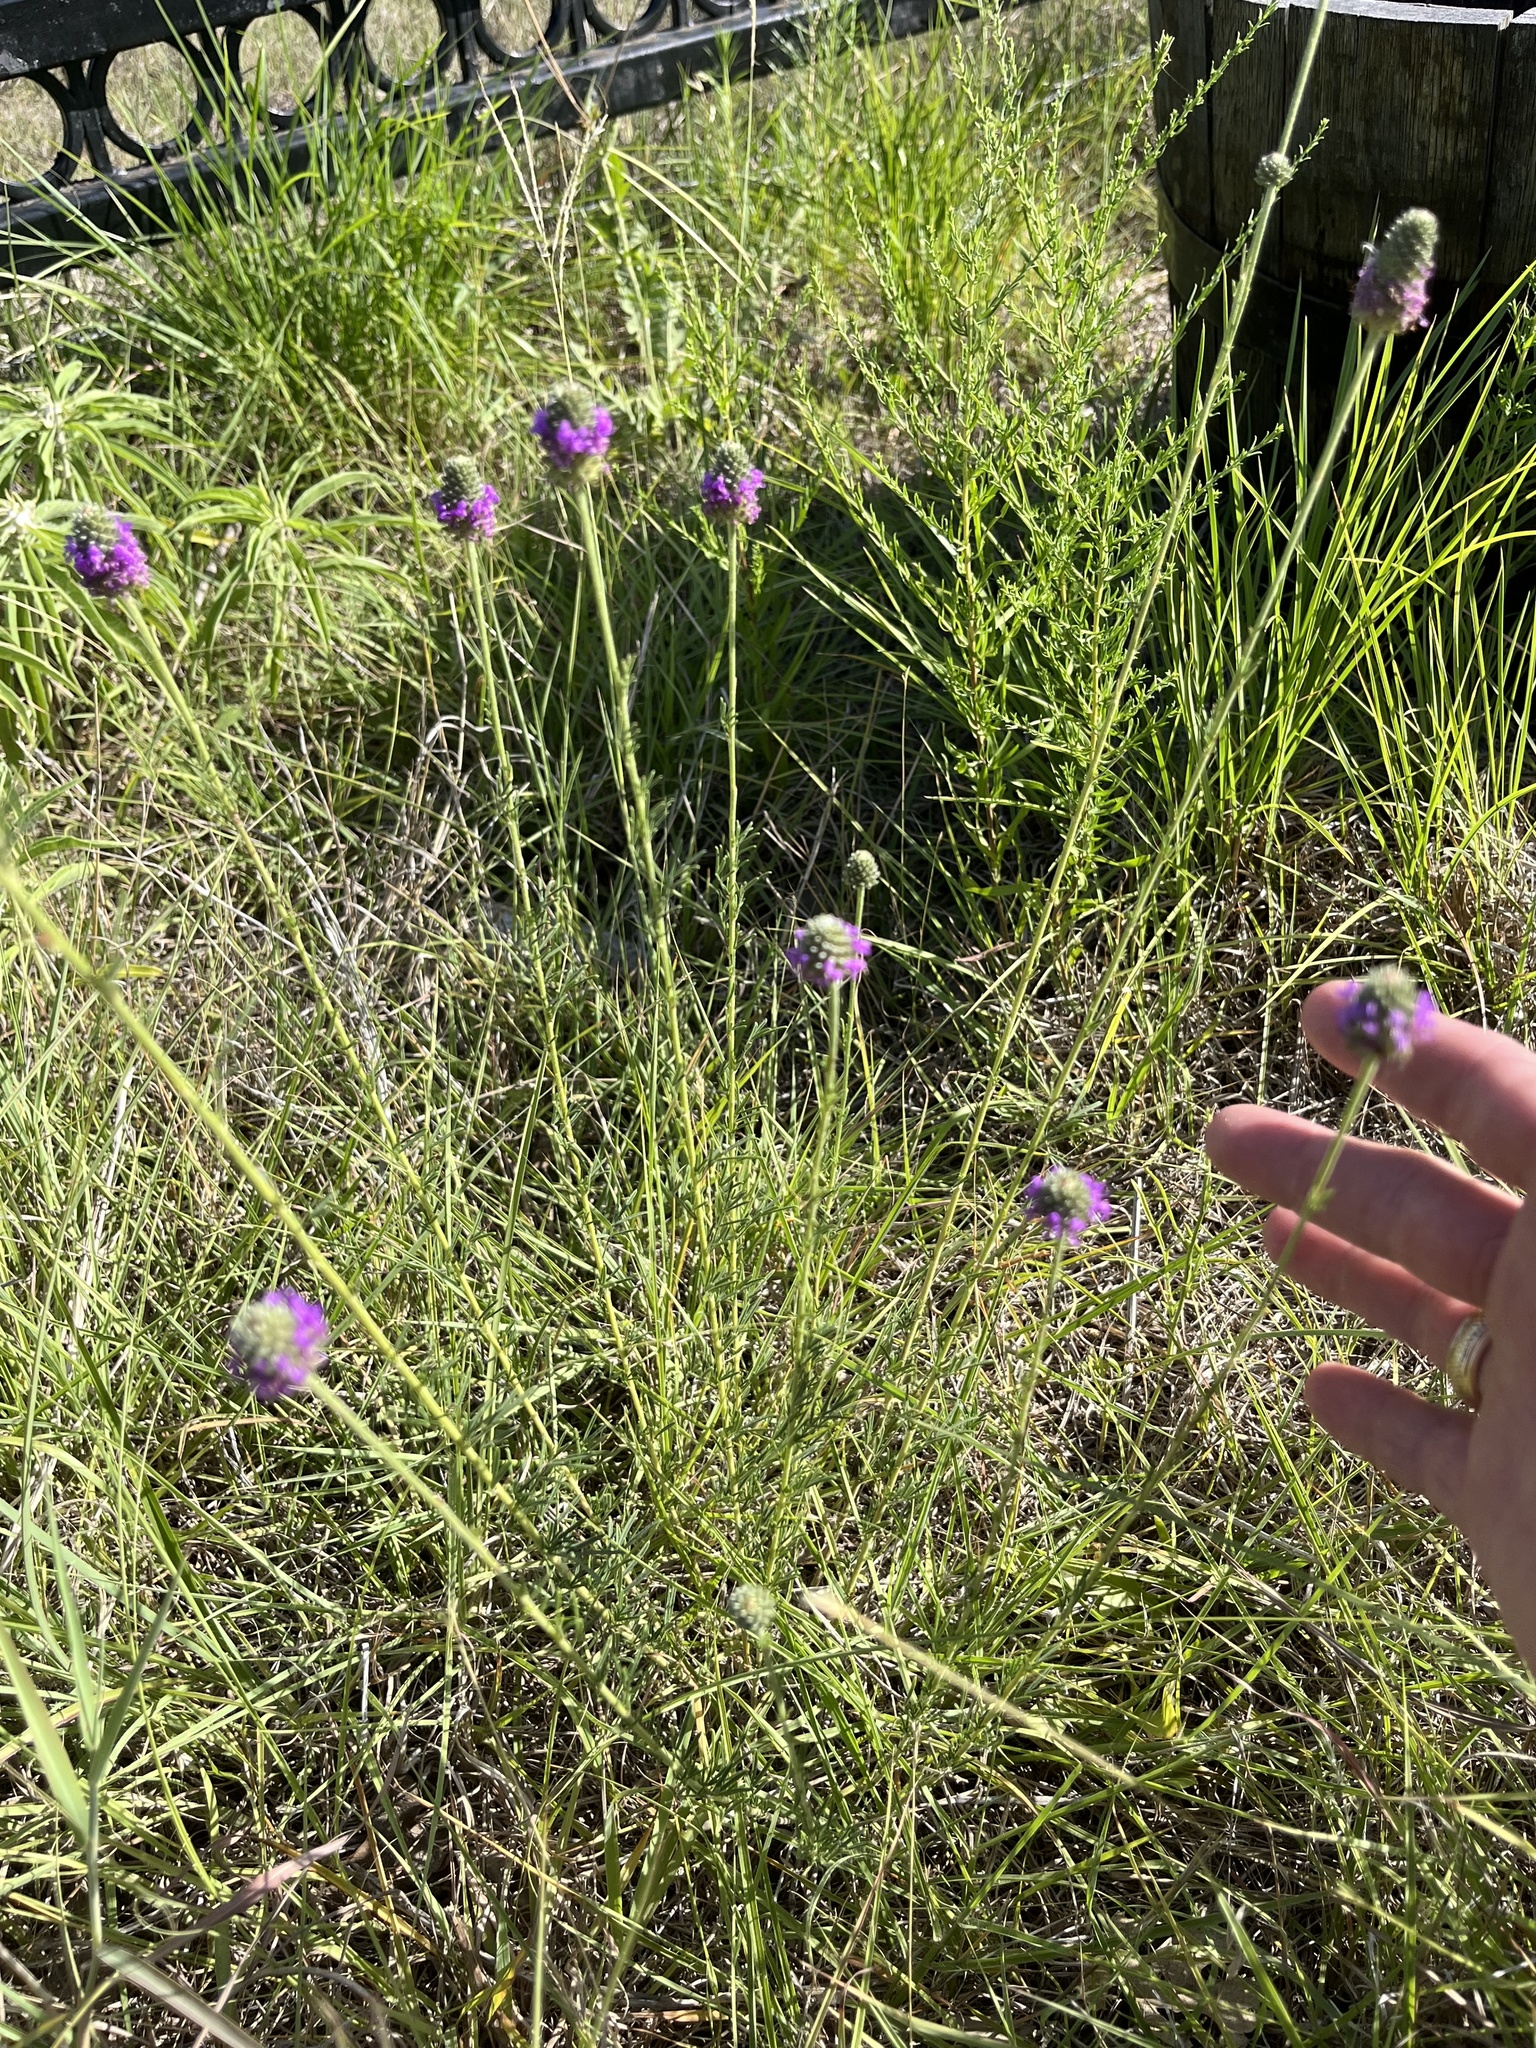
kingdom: Plantae
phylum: Tracheophyta
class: Magnoliopsida
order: Fabales
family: Fabaceae
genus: Dalea
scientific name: Dalea compacta
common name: Compact prairie-clover
